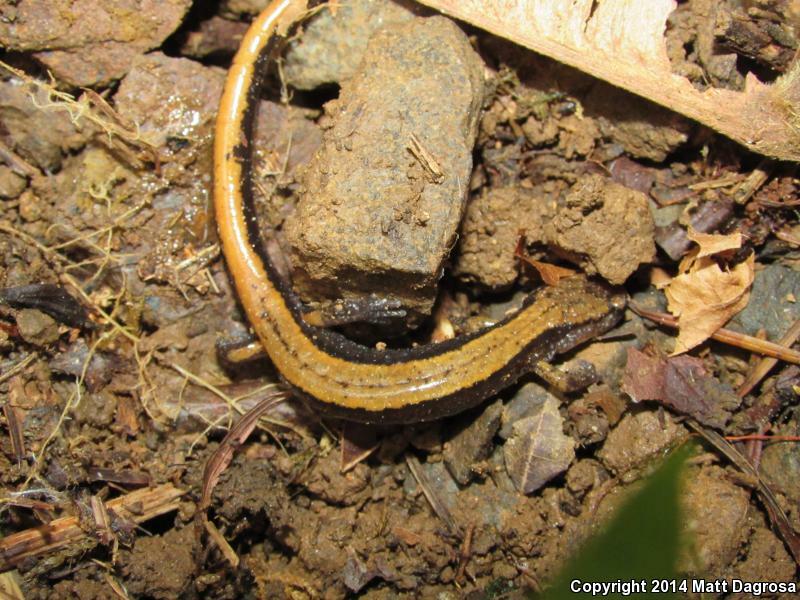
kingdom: Animalia
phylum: Chordata
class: Amphibia
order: Caudata
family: Plethodontidae
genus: Plethodon
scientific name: Plethodon vehiculum
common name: Western red-backed salamander
